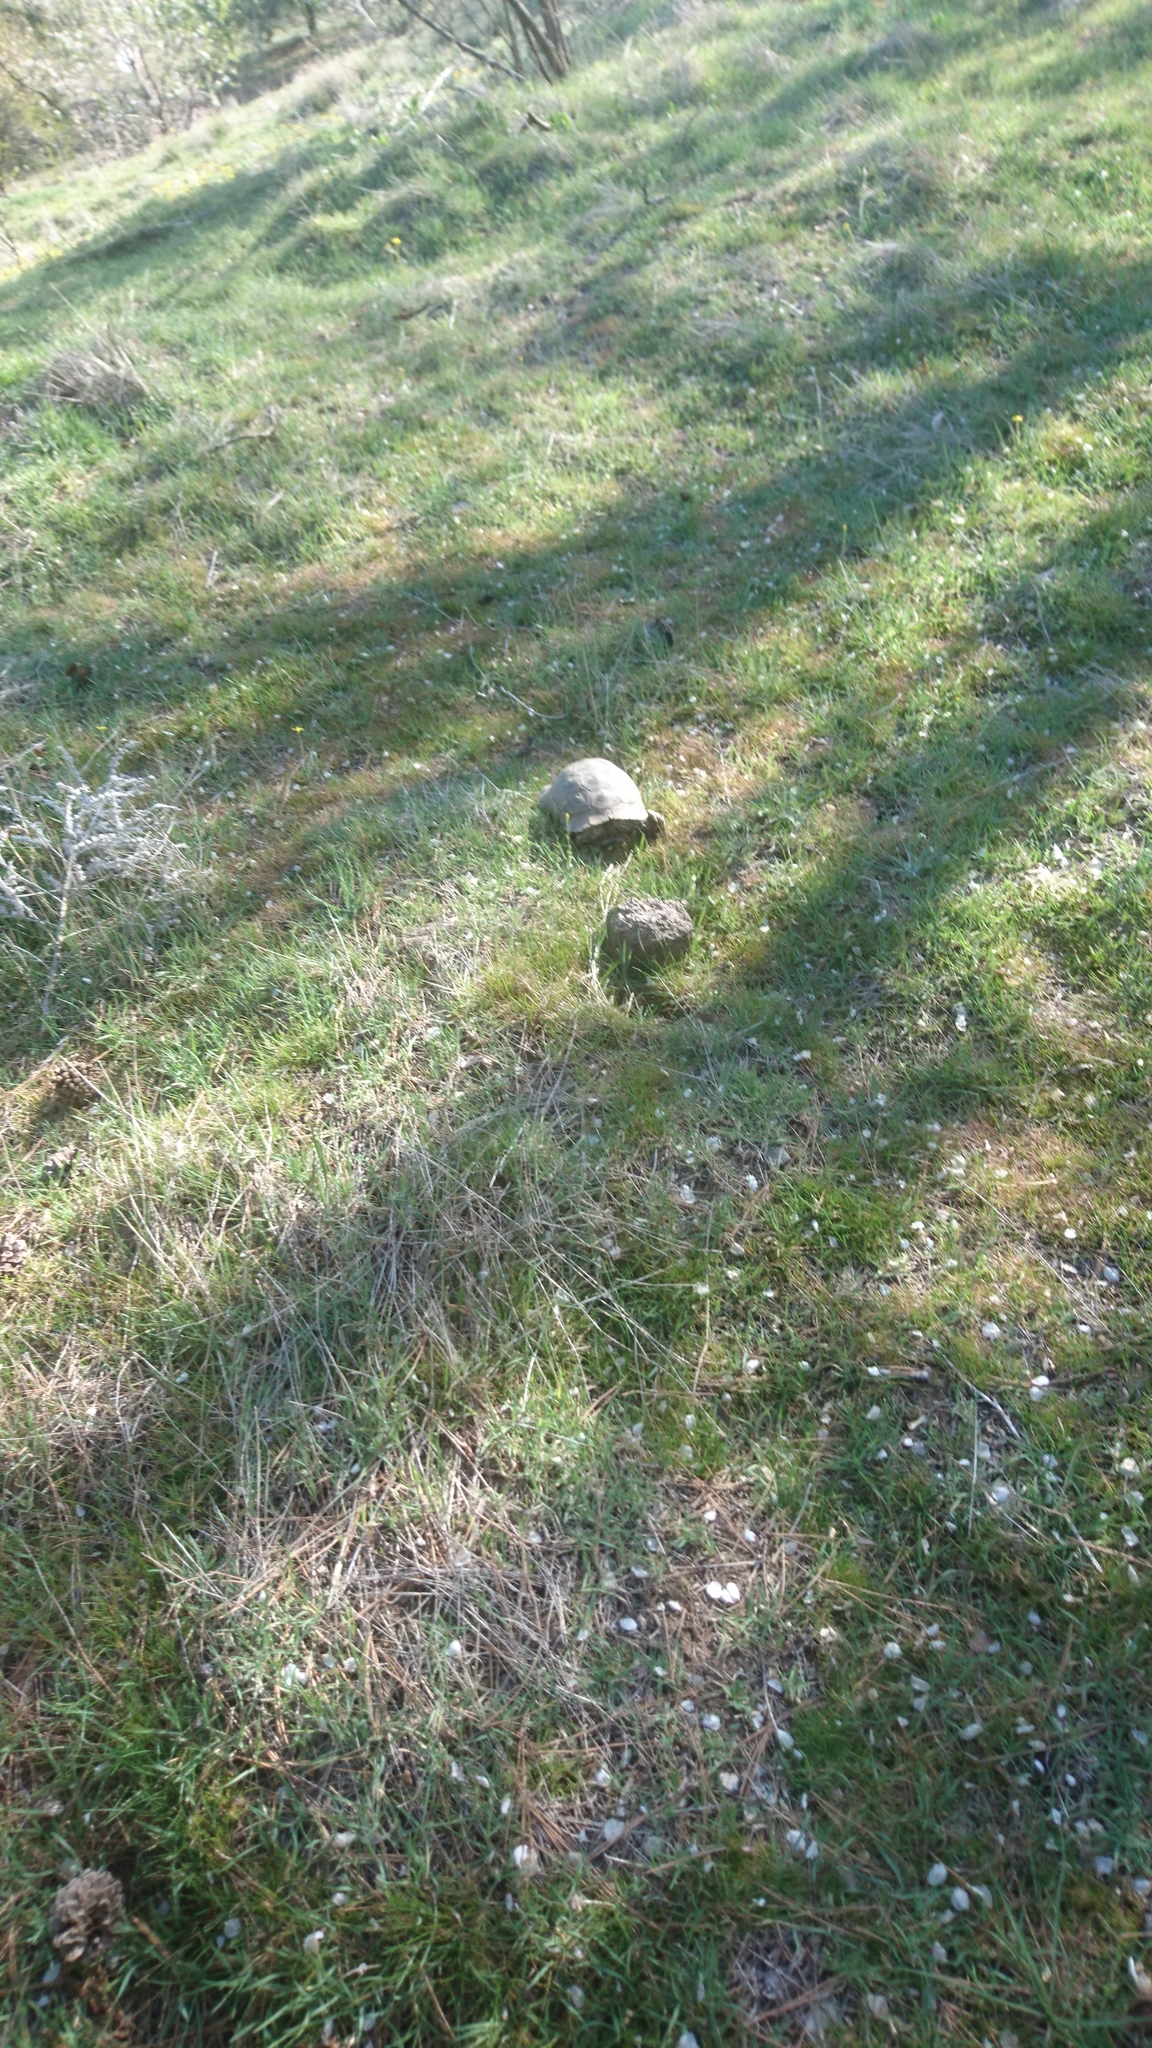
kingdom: Animalia
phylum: Chordata
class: Testudines
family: Testudinidae
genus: Testudo
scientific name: Testudo graeca
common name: Common tortoise
